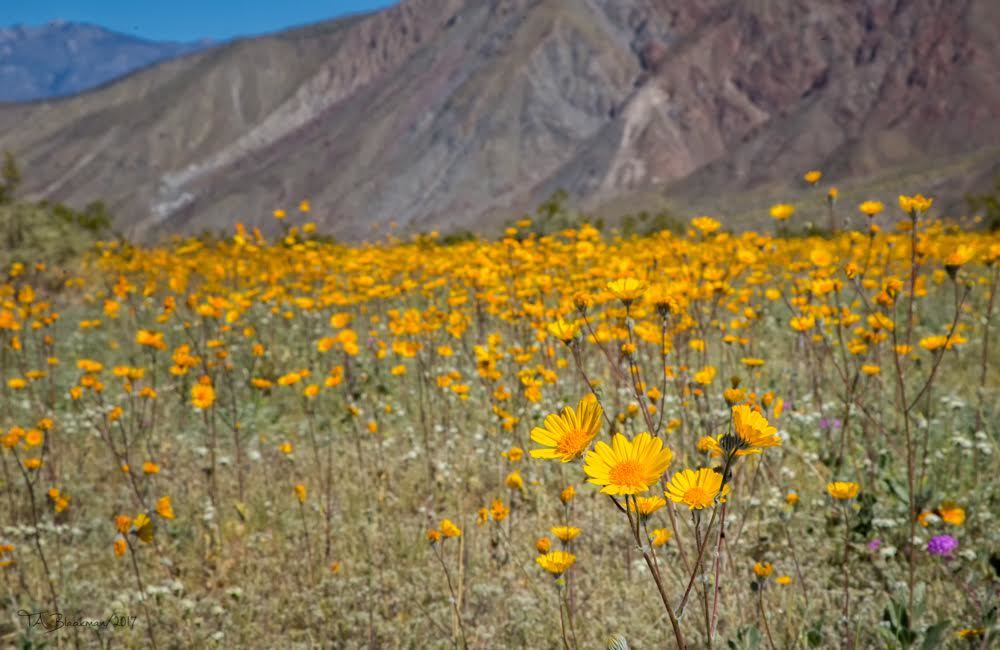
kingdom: Plantae
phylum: Tracheophyta
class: Magnoliopsida
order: Asterales
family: Asteraceae
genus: Geraea
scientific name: Geraea canescens
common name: Desert-gold
